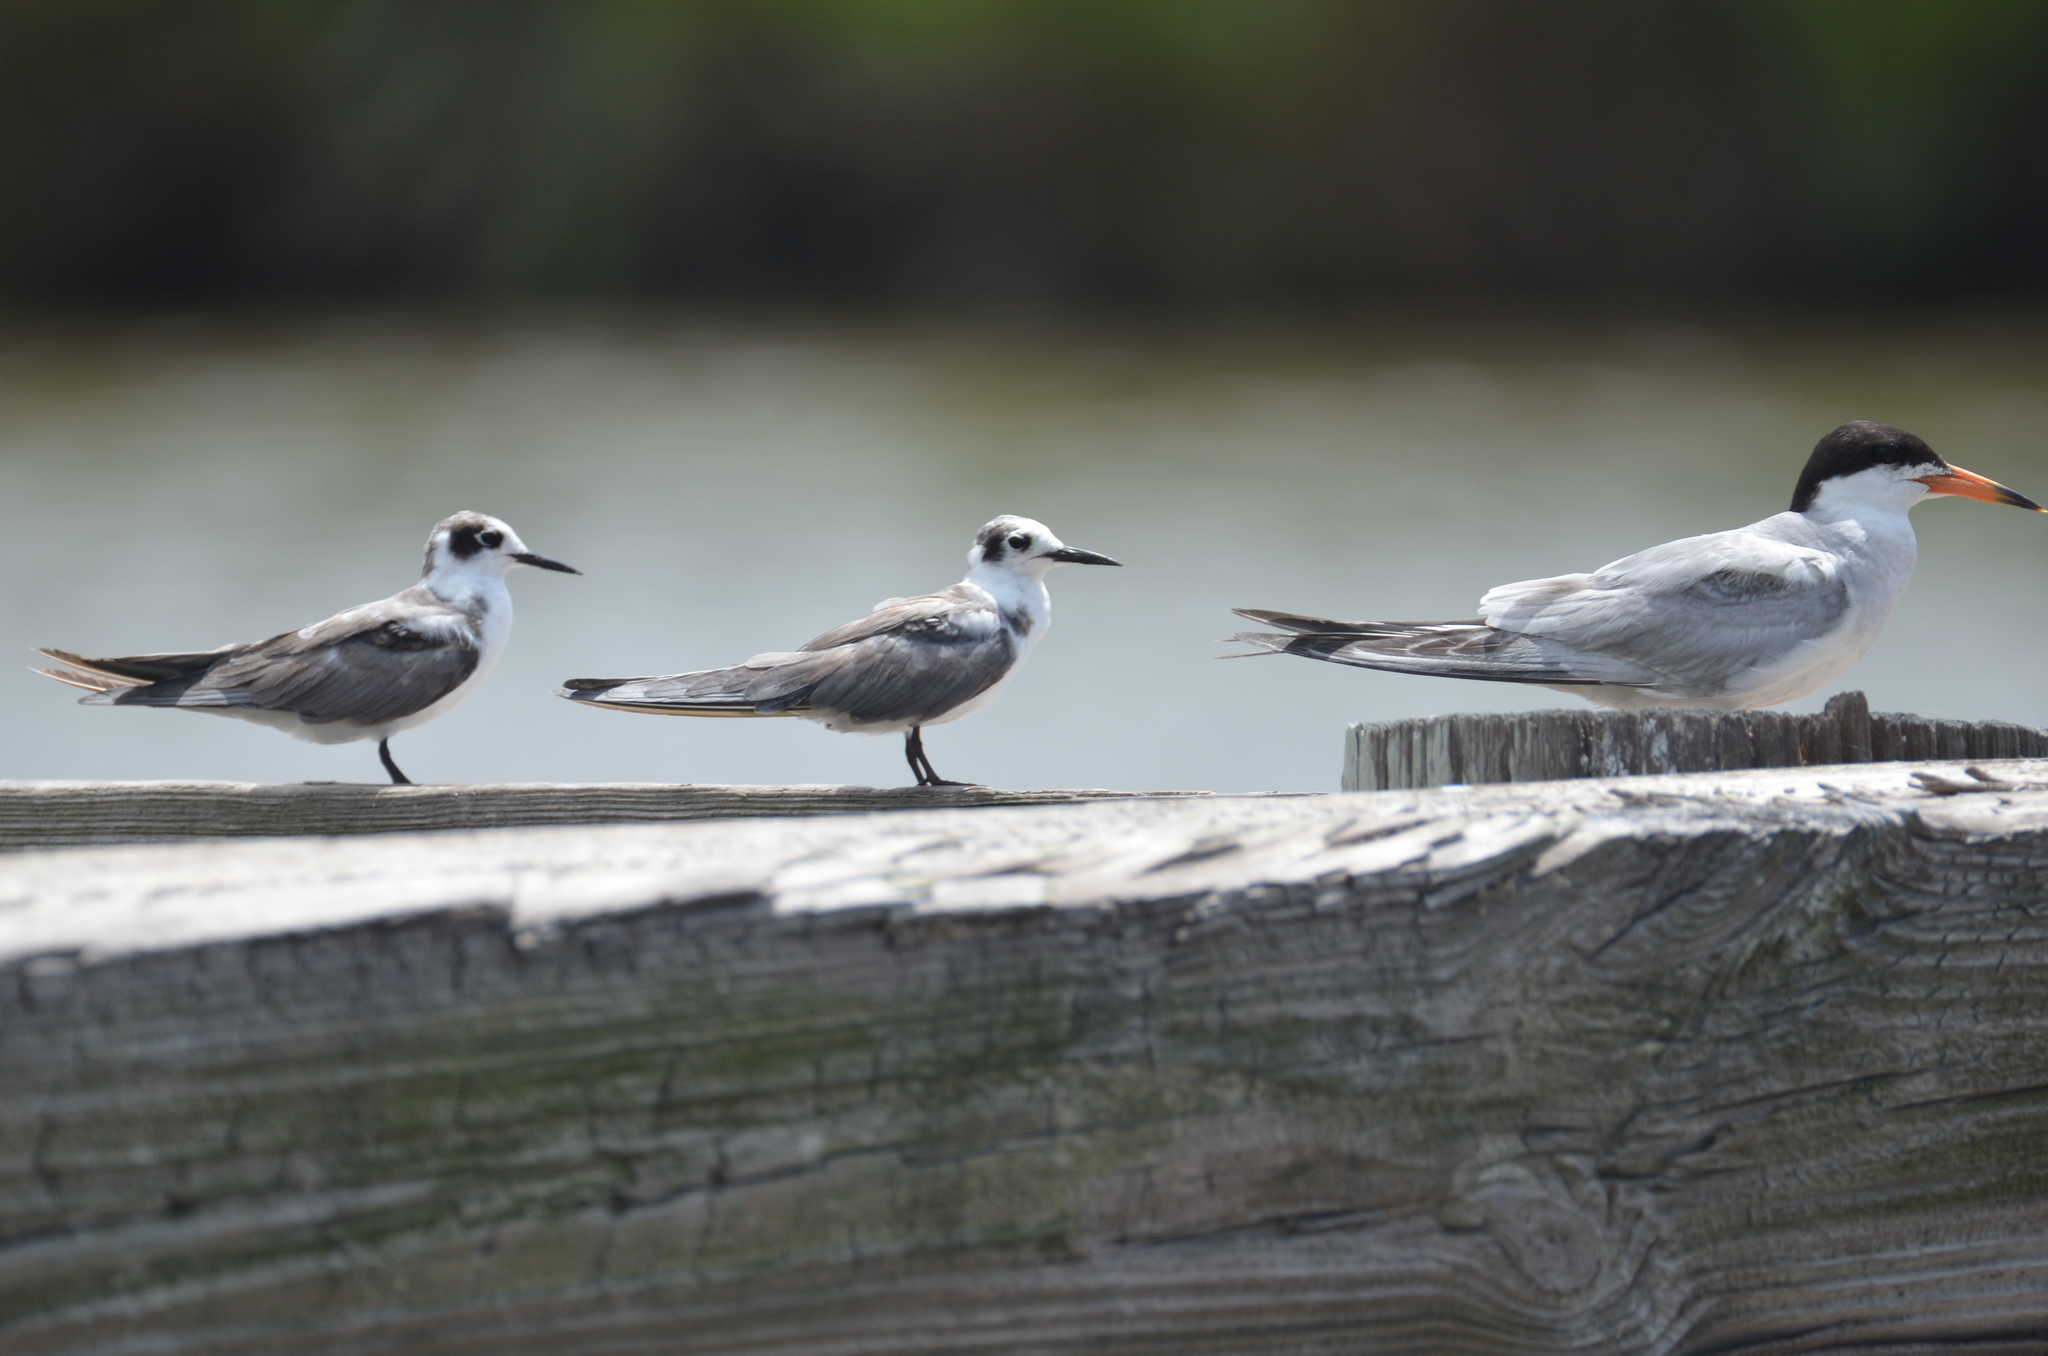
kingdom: Animalia
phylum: Chordata
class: Aves
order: Charadriiformes
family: Laridae
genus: Chlidonias
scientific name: Chlidonias niger
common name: Black tern
